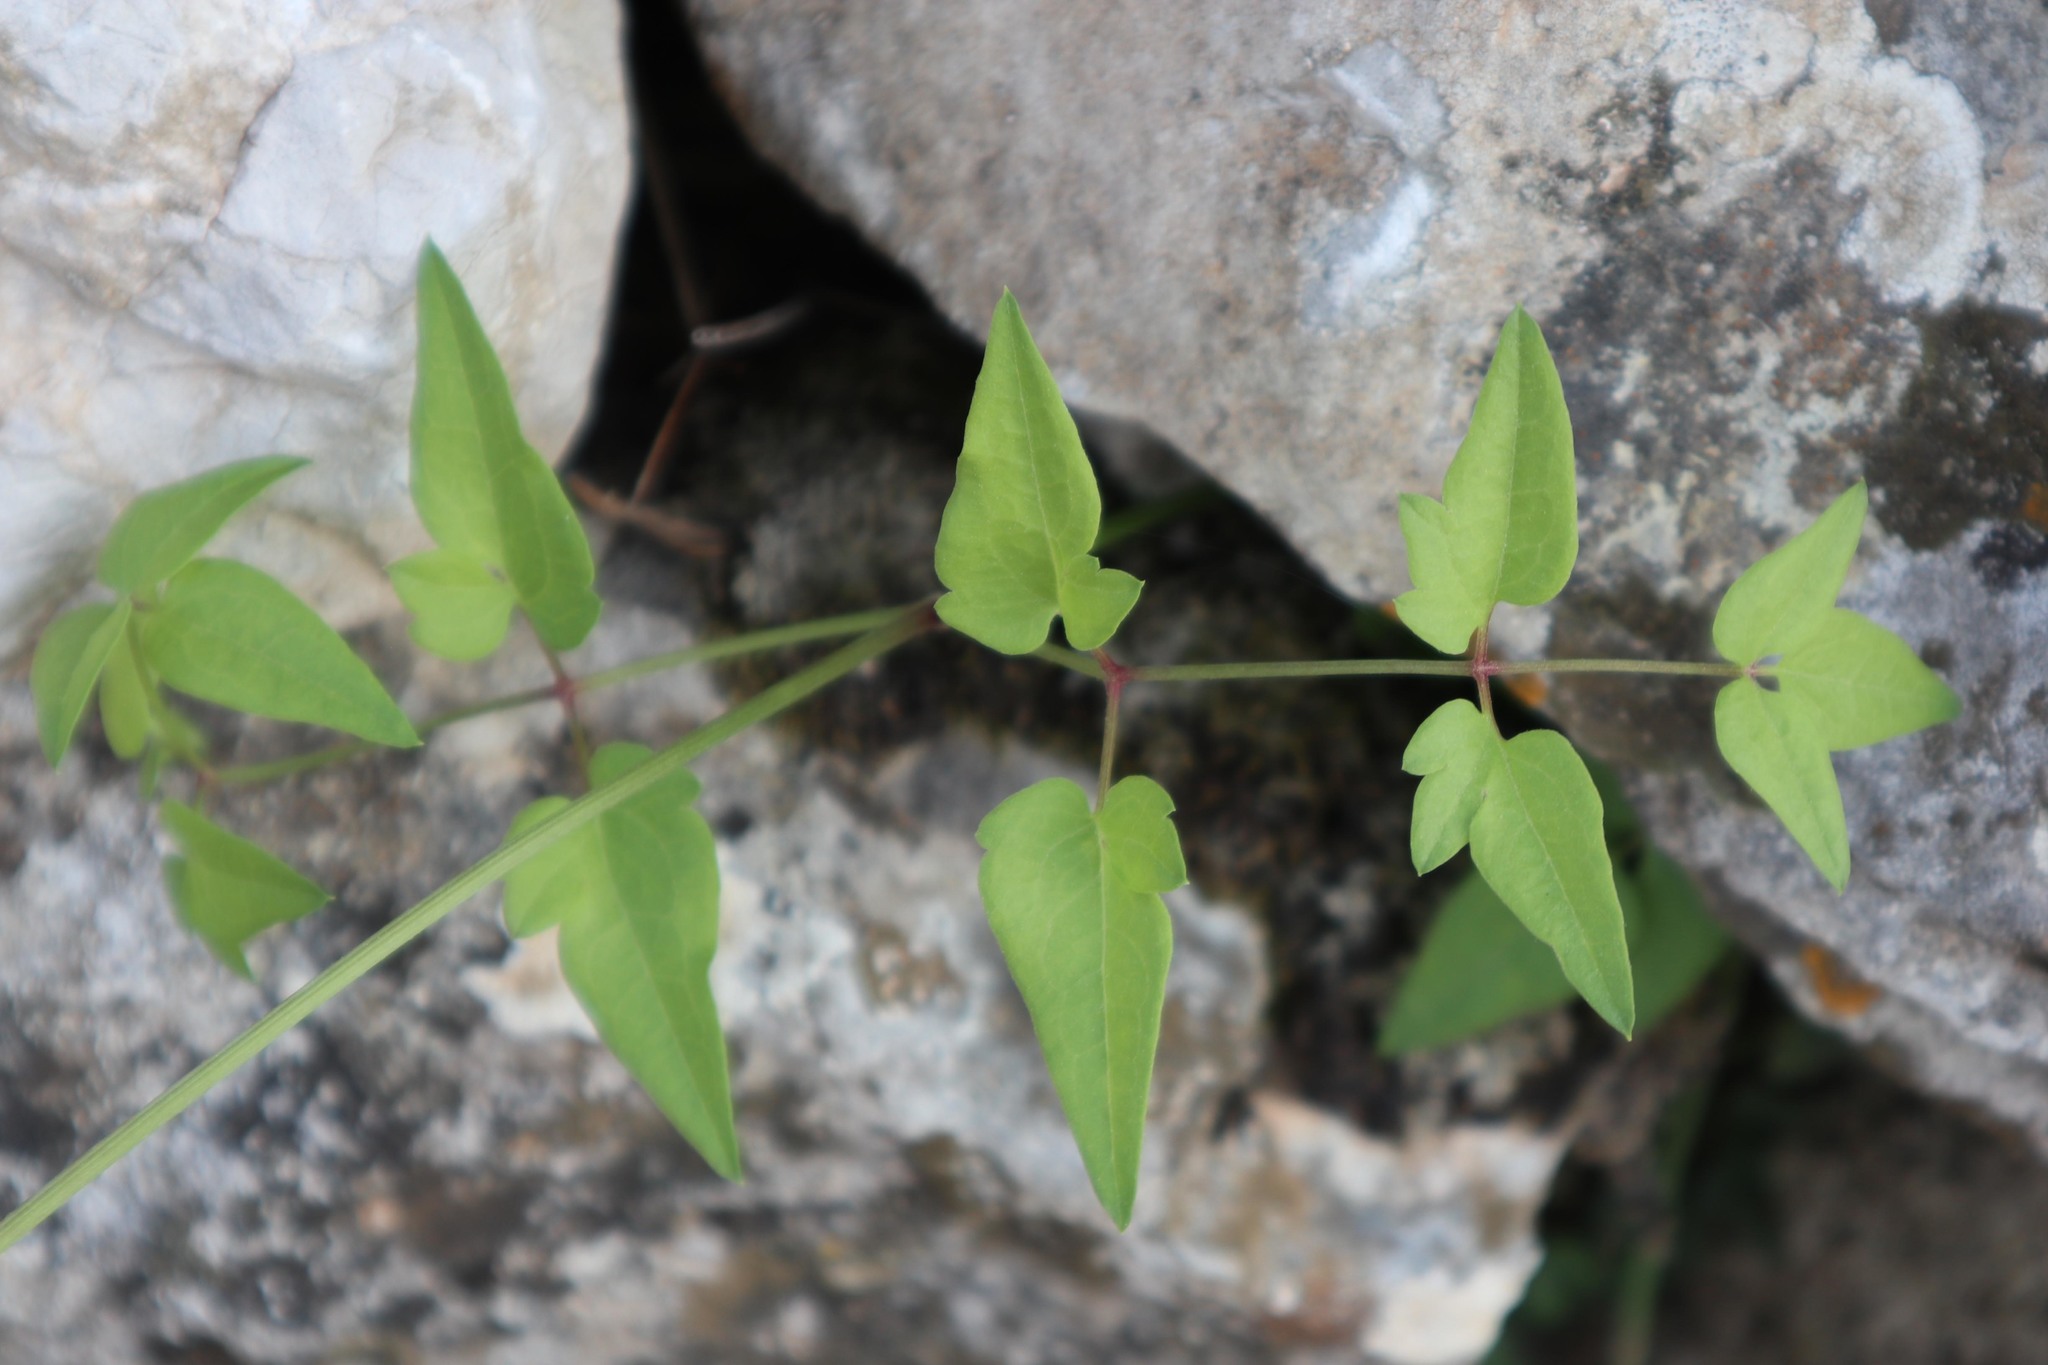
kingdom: Plantae
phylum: Tracheophyta
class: Magnoliopsida
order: Ranunculales
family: Ranunculaceae
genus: Clematis
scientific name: Clematis vitalba
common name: Evergreen clematis
